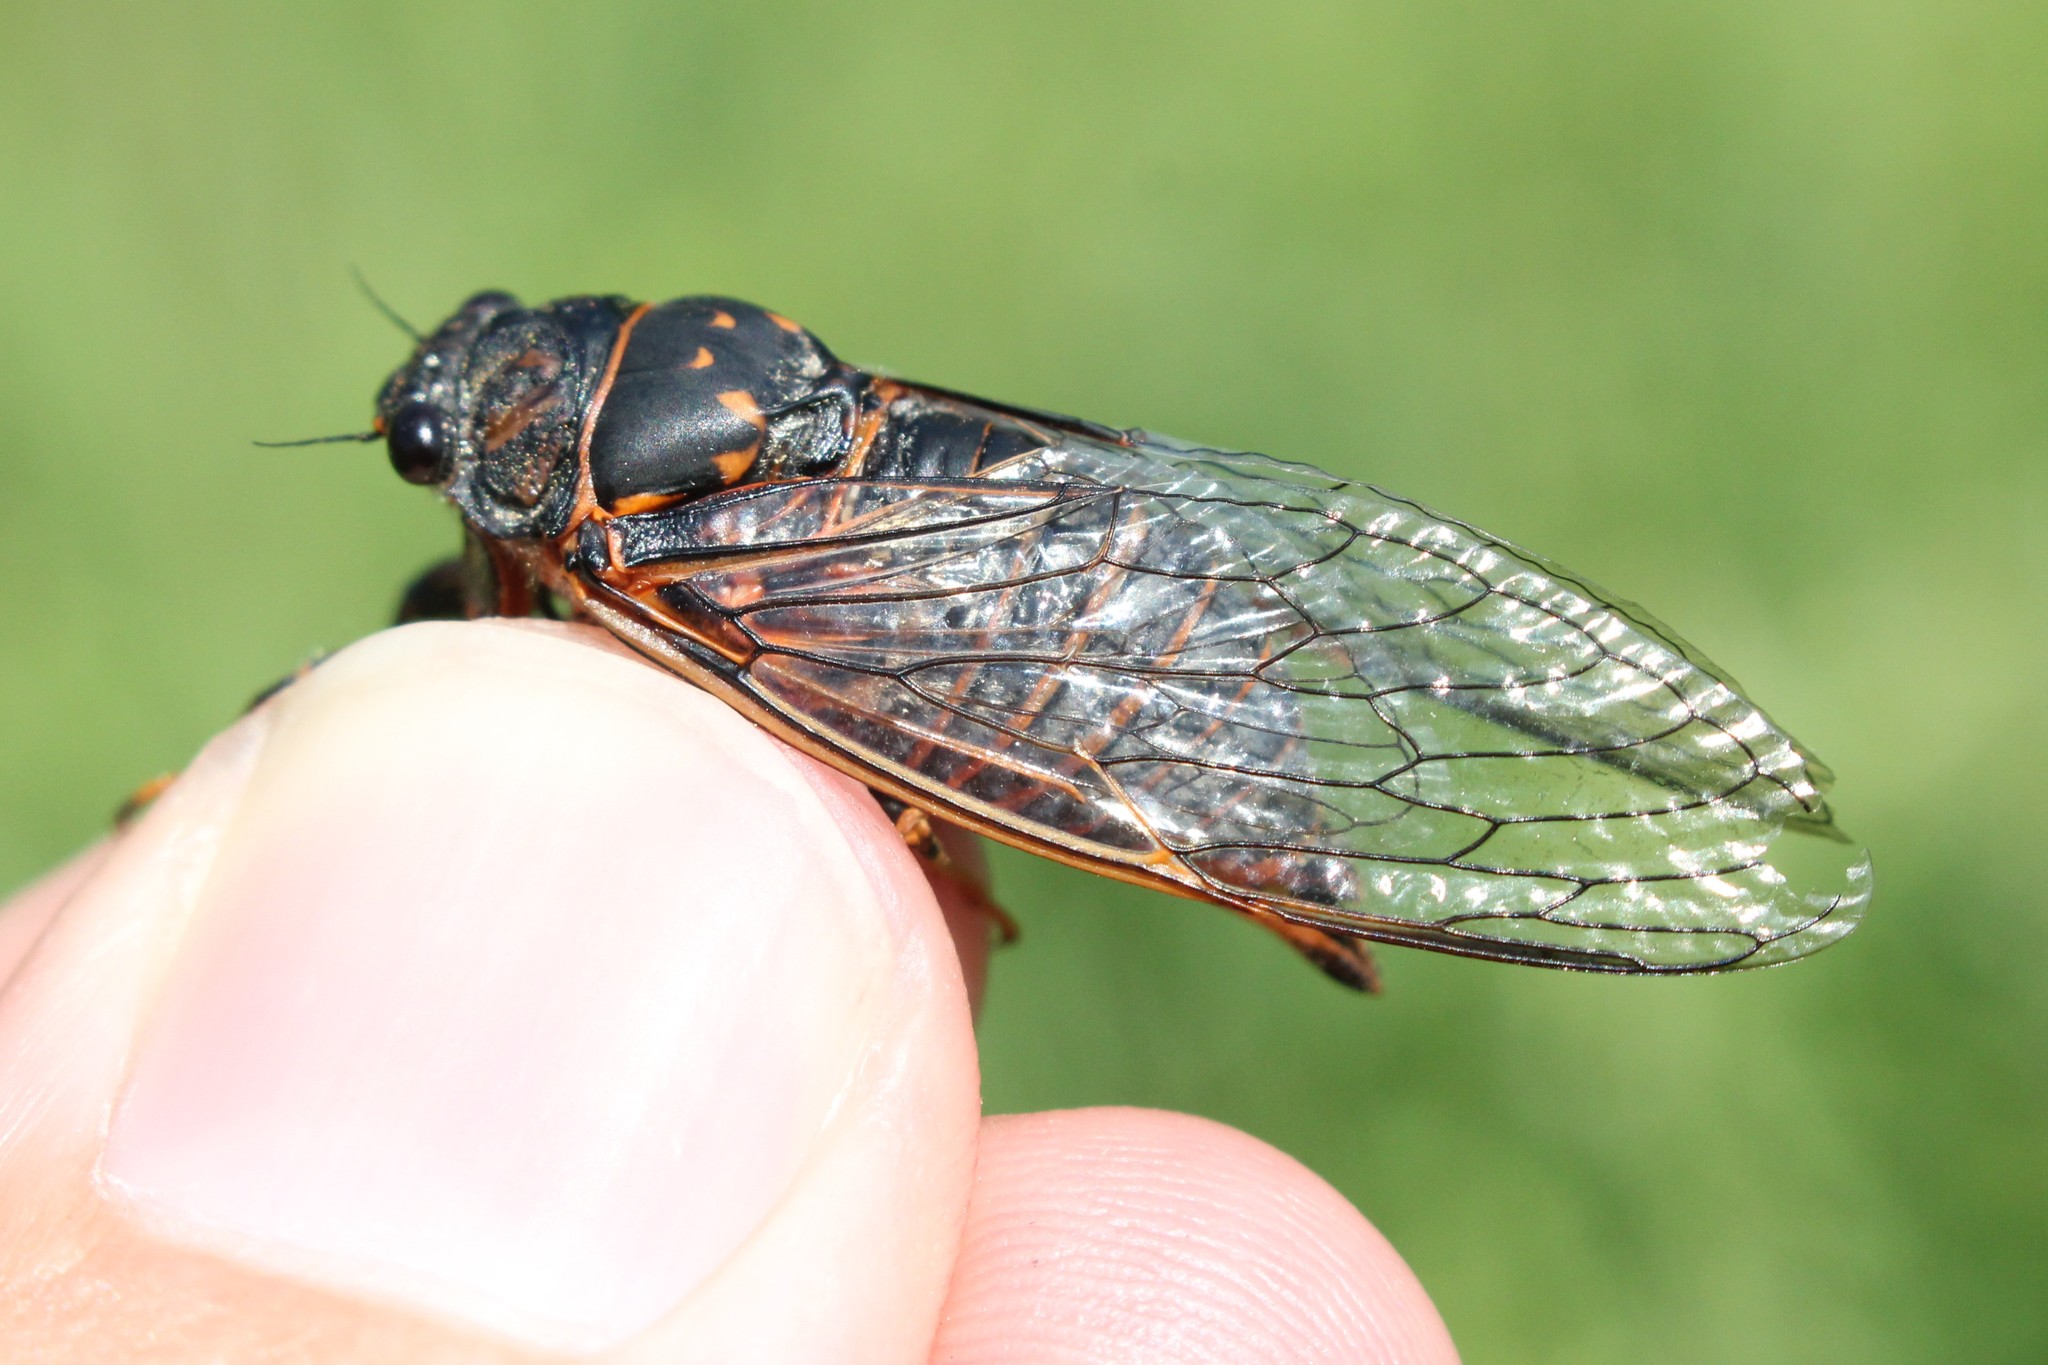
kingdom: Animalia
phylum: Arthropoda
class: Insecta
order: Hemiptera
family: Cicadidae
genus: Okanagana
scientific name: Okanagana rimosa
